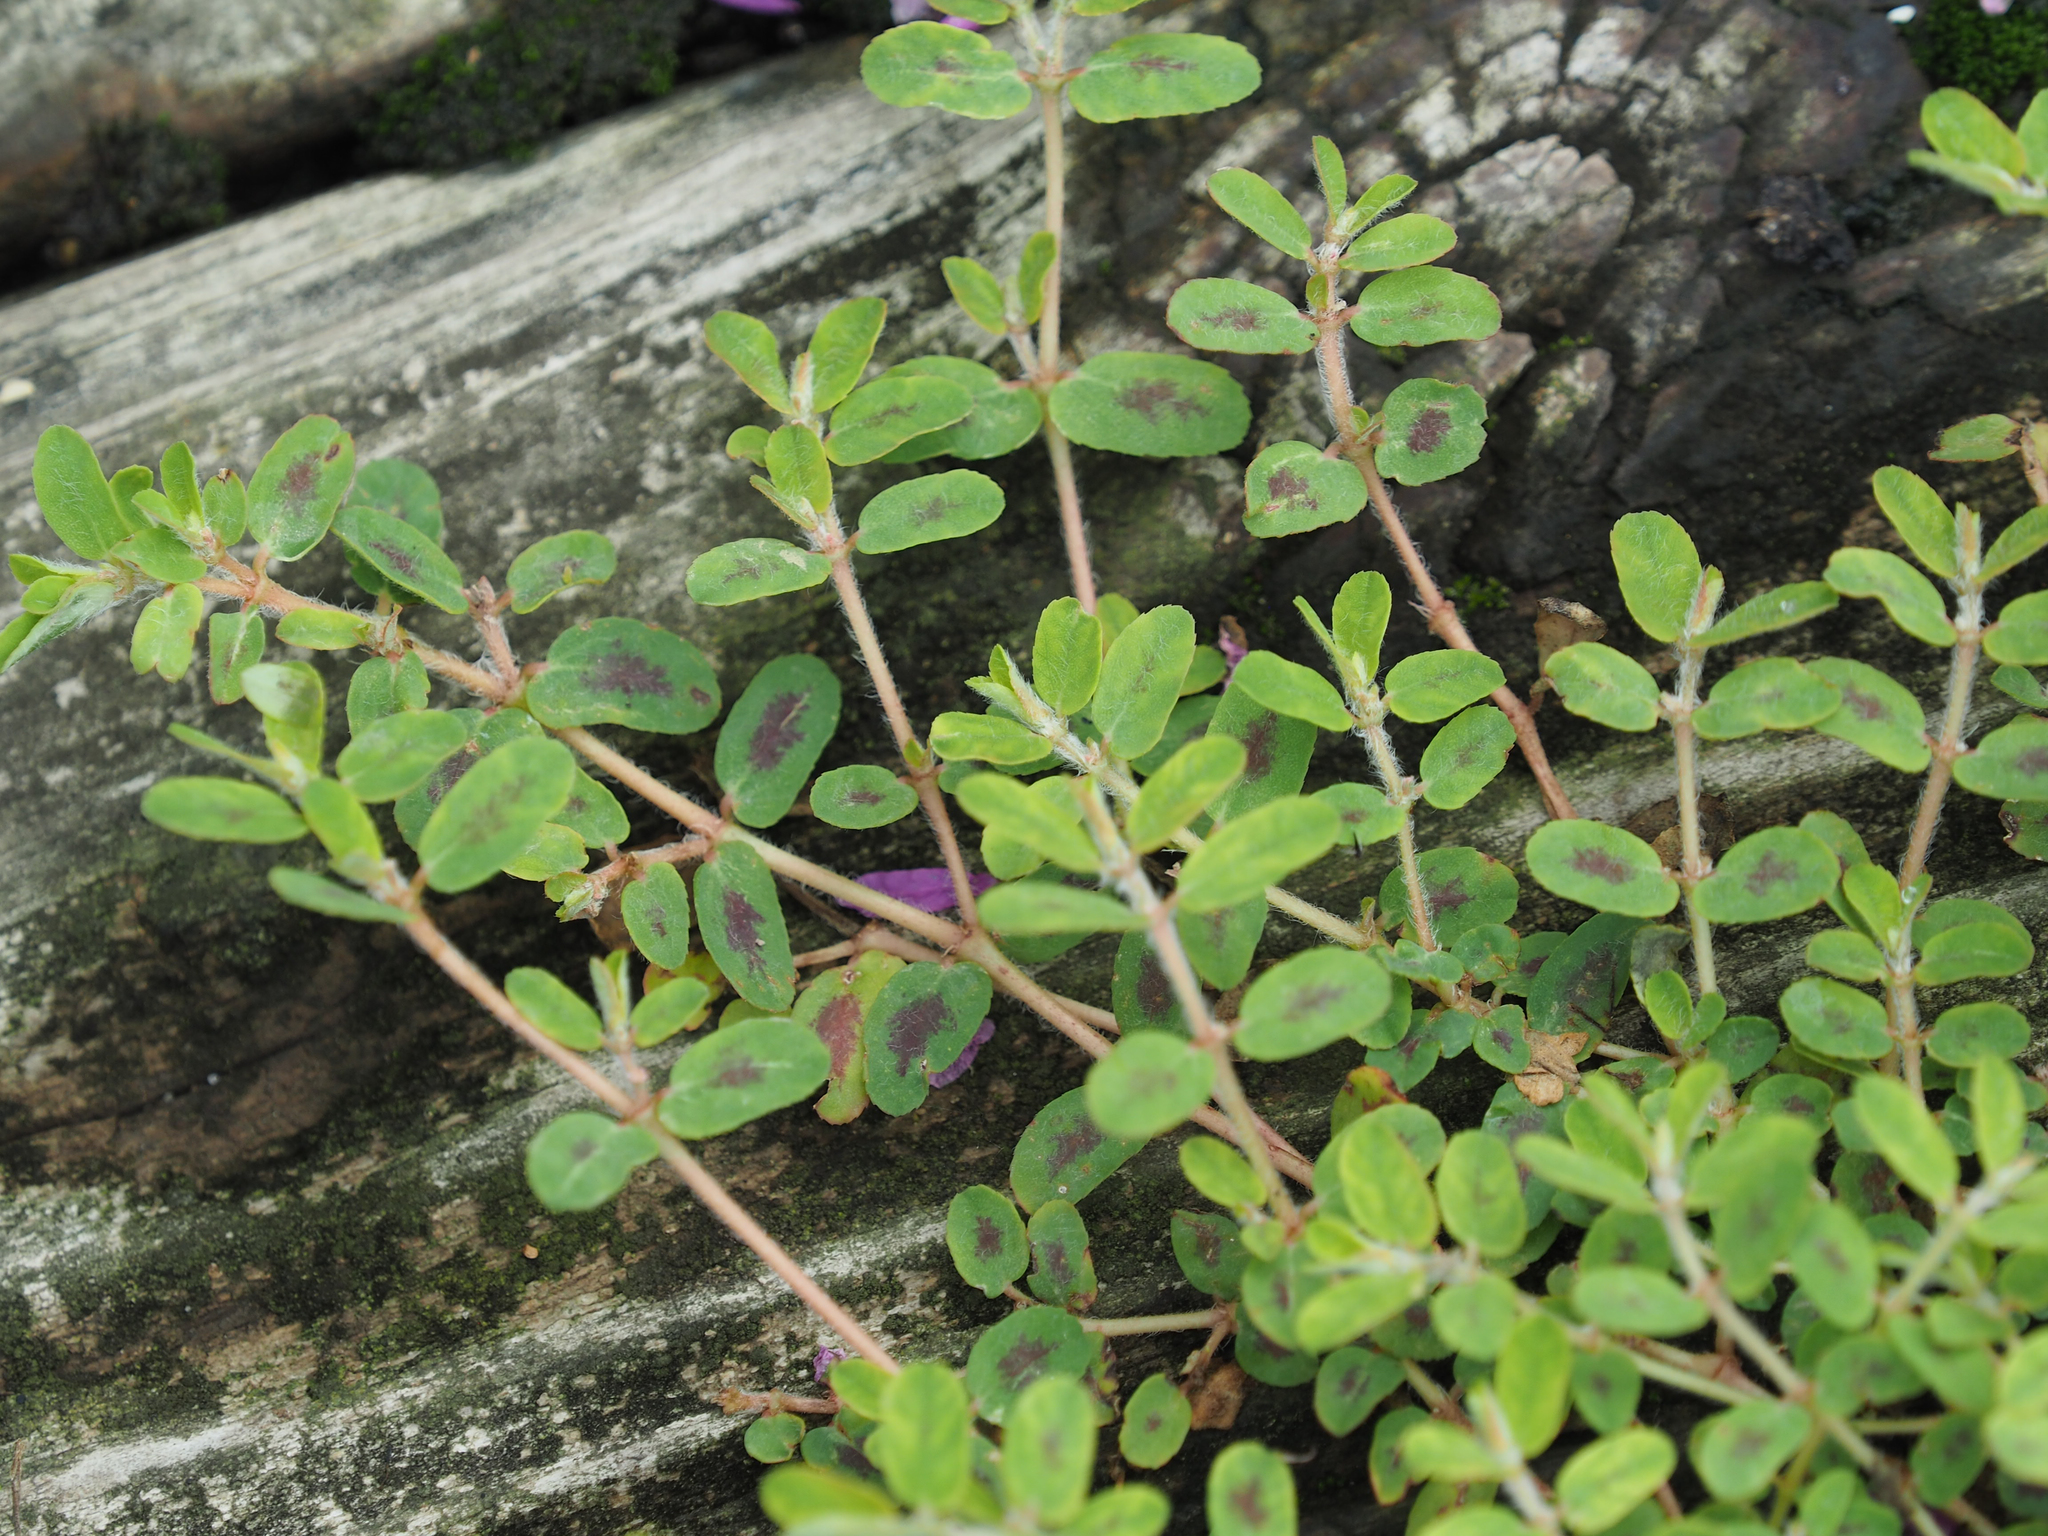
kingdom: Plantae
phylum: Tracheophyta
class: Magnoliopsida
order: Malpighiales
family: Euphorbiaceae
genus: Euphorbia
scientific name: Euphorbia maculata
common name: Spotted spurge
